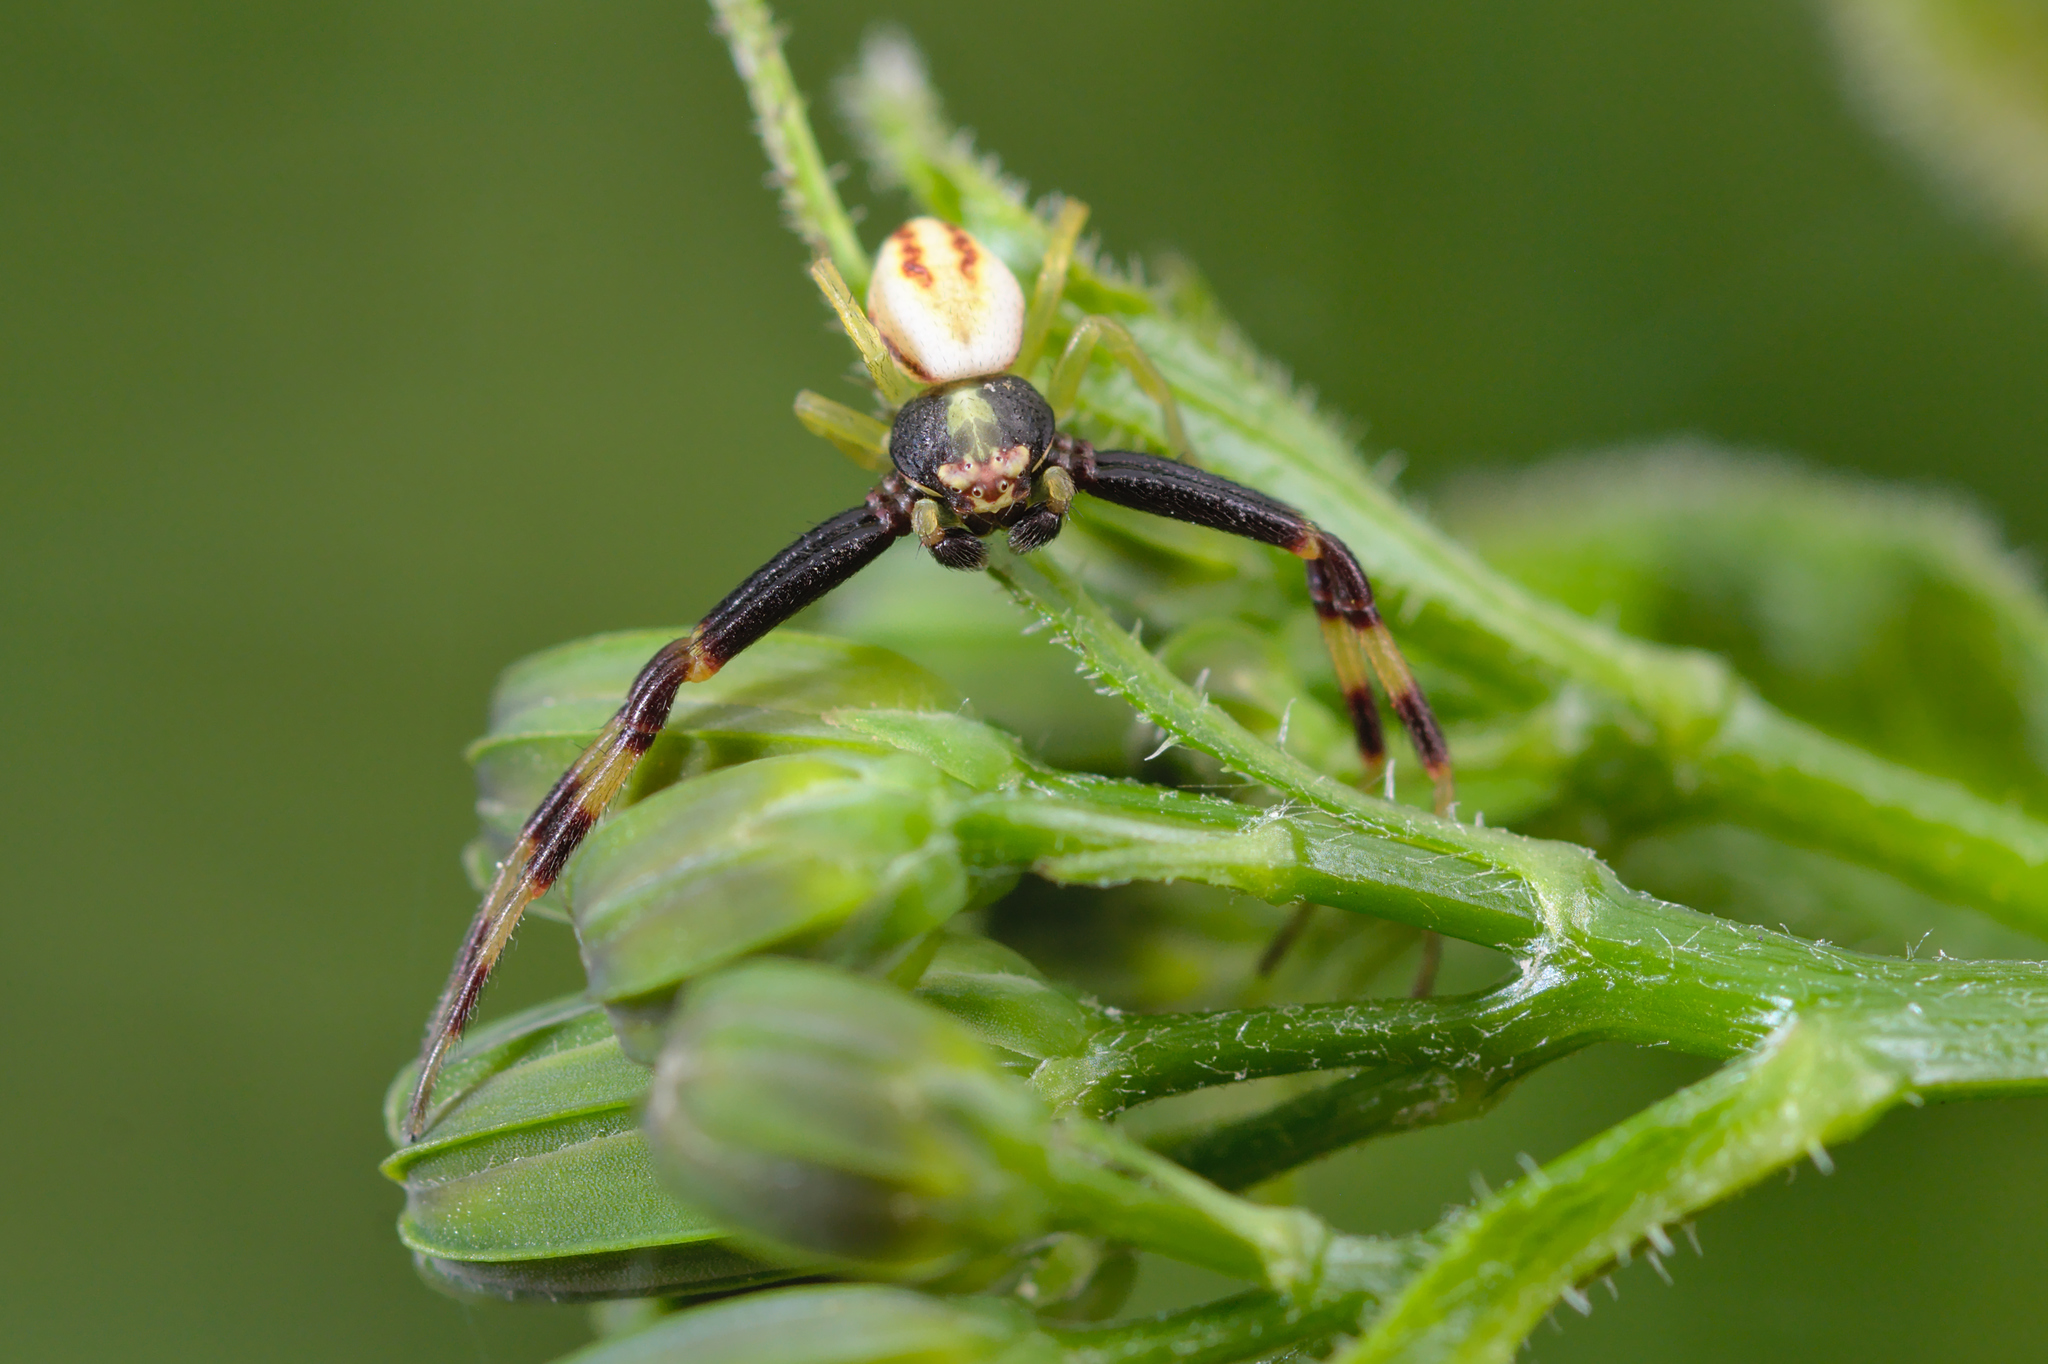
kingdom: Animalia
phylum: Arthropoda
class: Arachnida
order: Araneae
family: Thomisidae
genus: Misumena
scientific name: Misumena vatia
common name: Goldenrod crab spider
